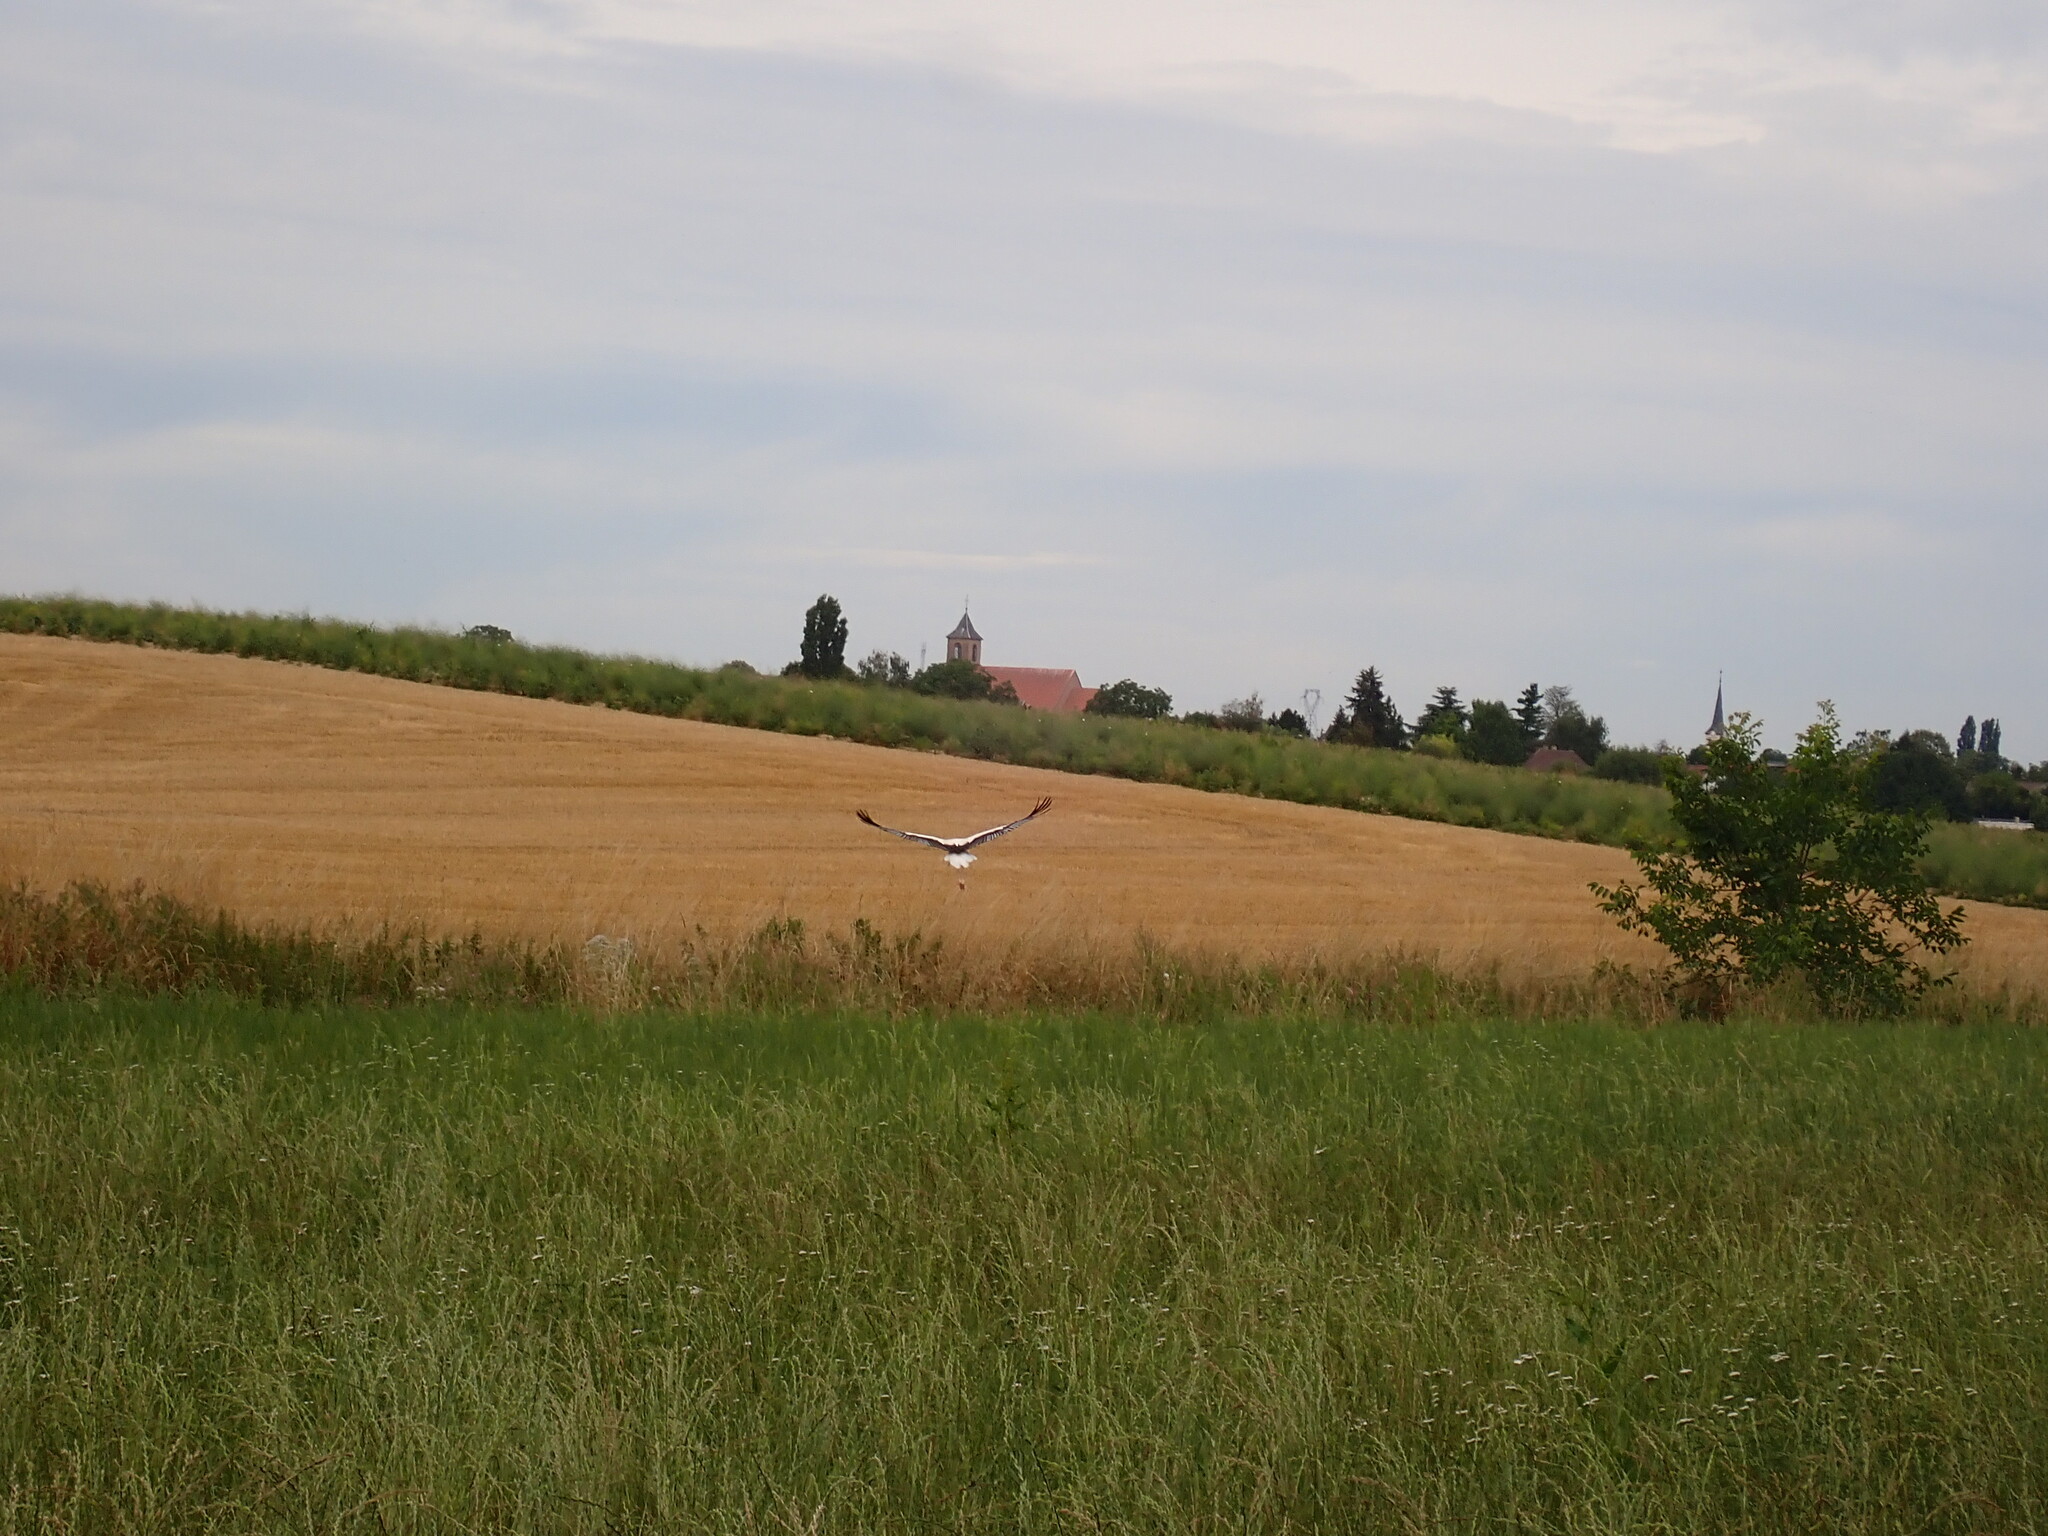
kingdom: Animalia
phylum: Chordata
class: Aves
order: Ciconiiformes
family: Ciconiidae
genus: Ciconia
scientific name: Ciconia ciconia
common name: White stork
